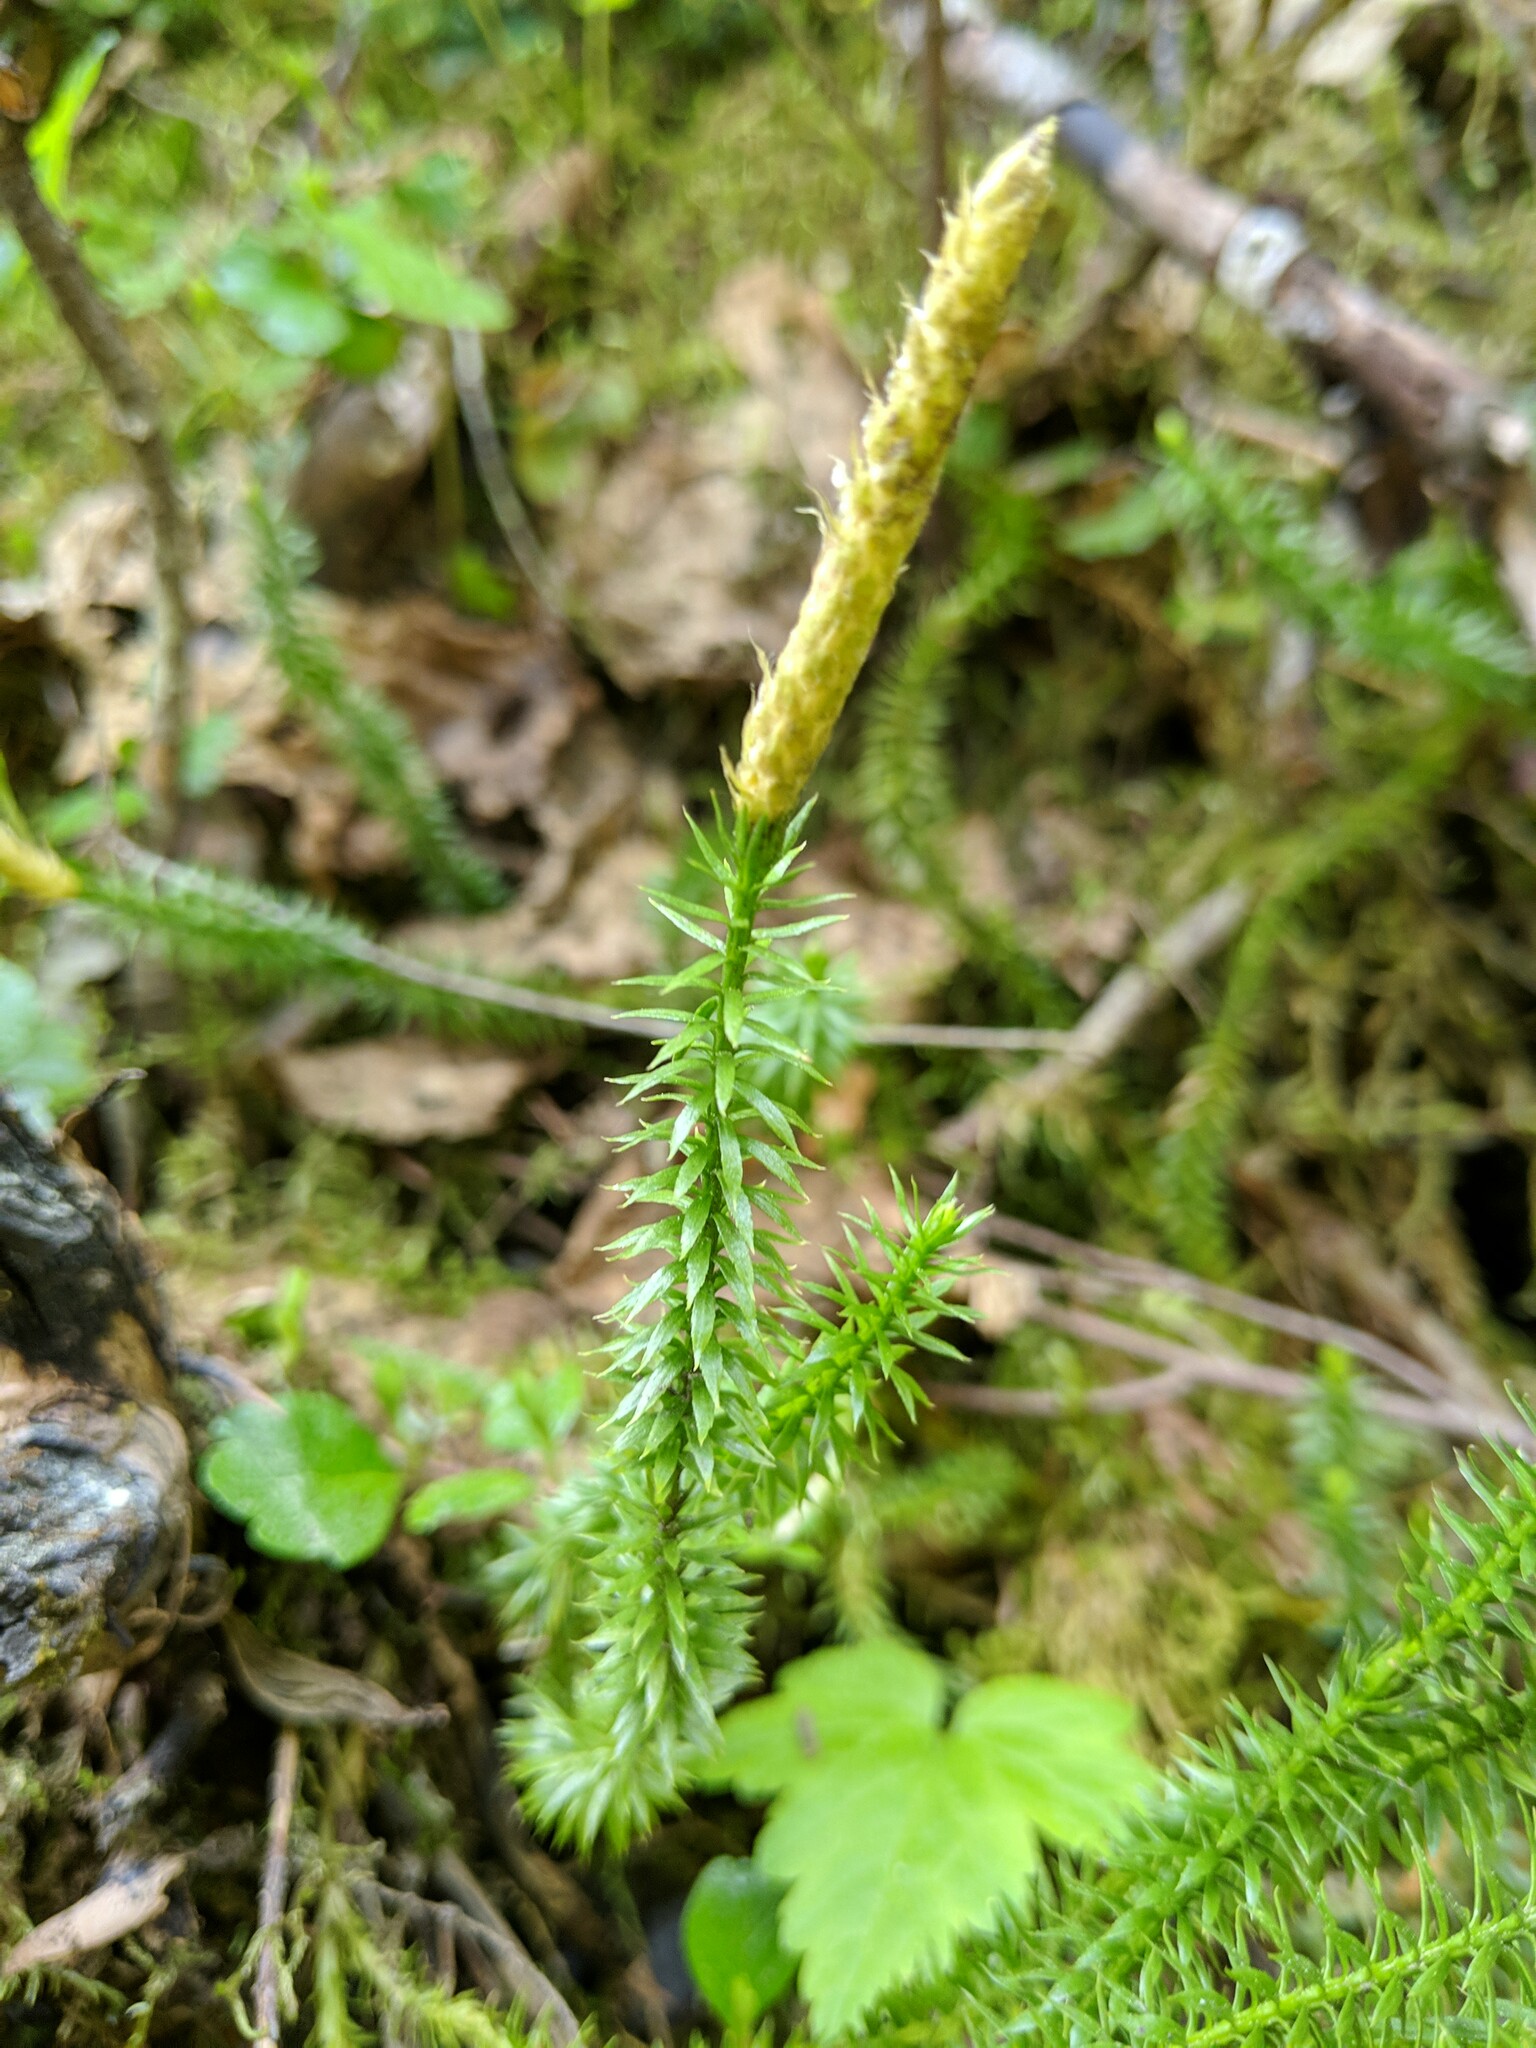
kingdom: Plantae
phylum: Tracheophyta
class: Lycopodiopsida
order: Lycopodiales
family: Lycopodiaceae
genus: Spinulum
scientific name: Spinulum annotinum
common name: Interrupted club-moss
